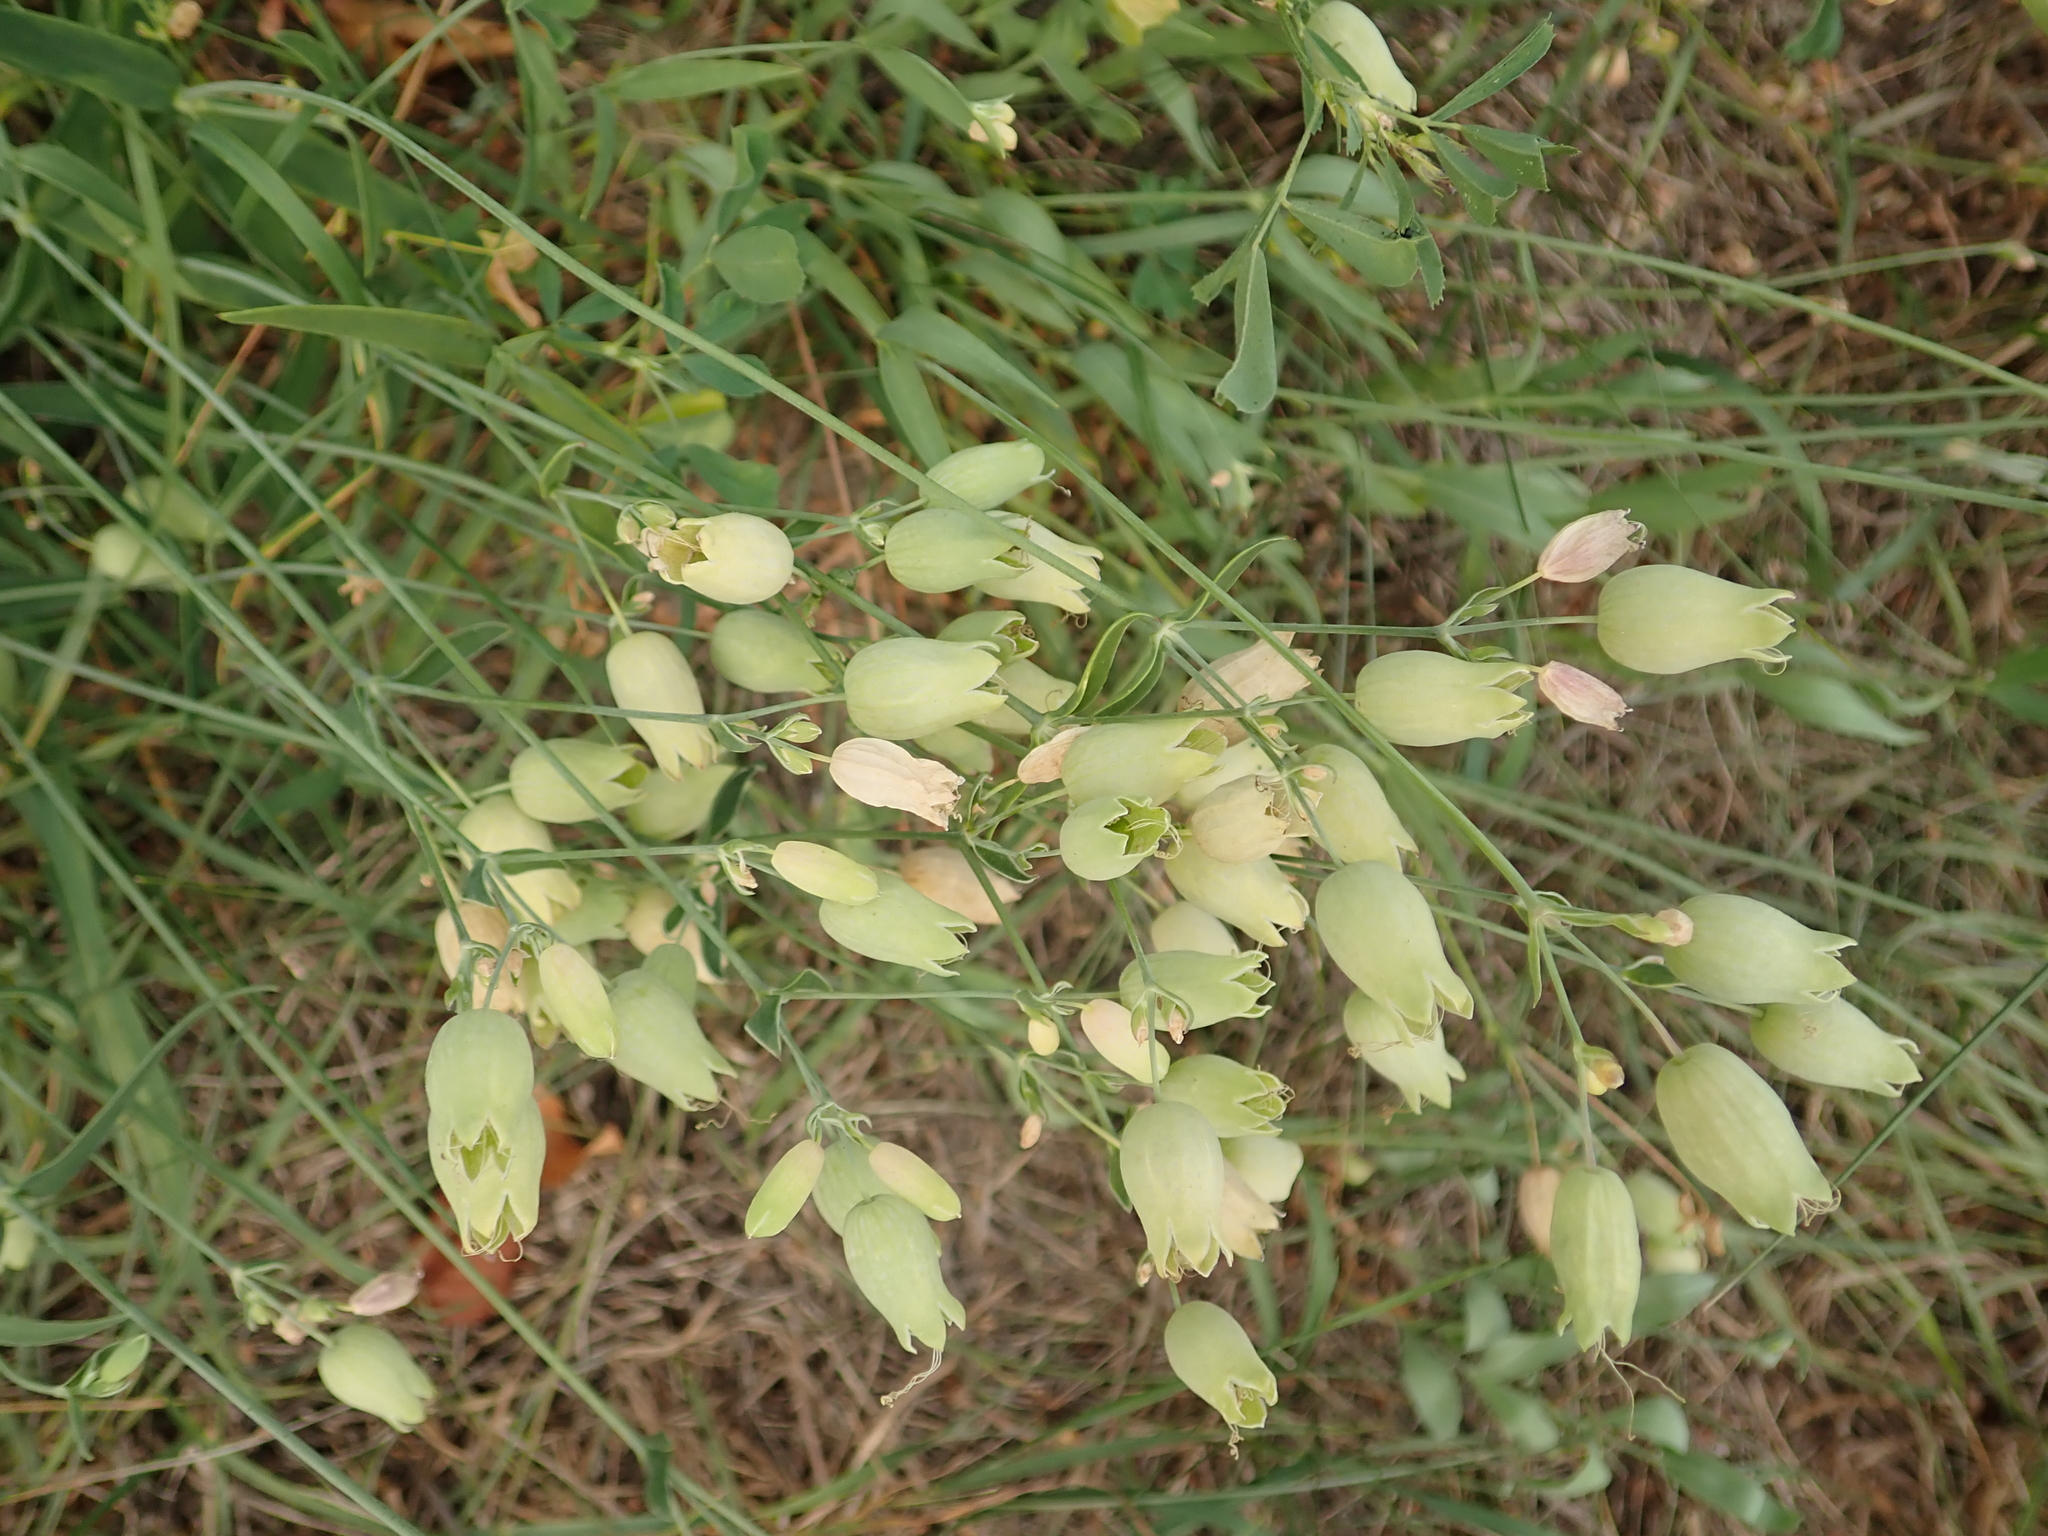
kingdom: Plantae
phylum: Tracheophyta
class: Magnoliopsida
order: Caryophyllales
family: Caryophyllaceae
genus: Silene
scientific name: Silene vulgaris
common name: Bladder campion
